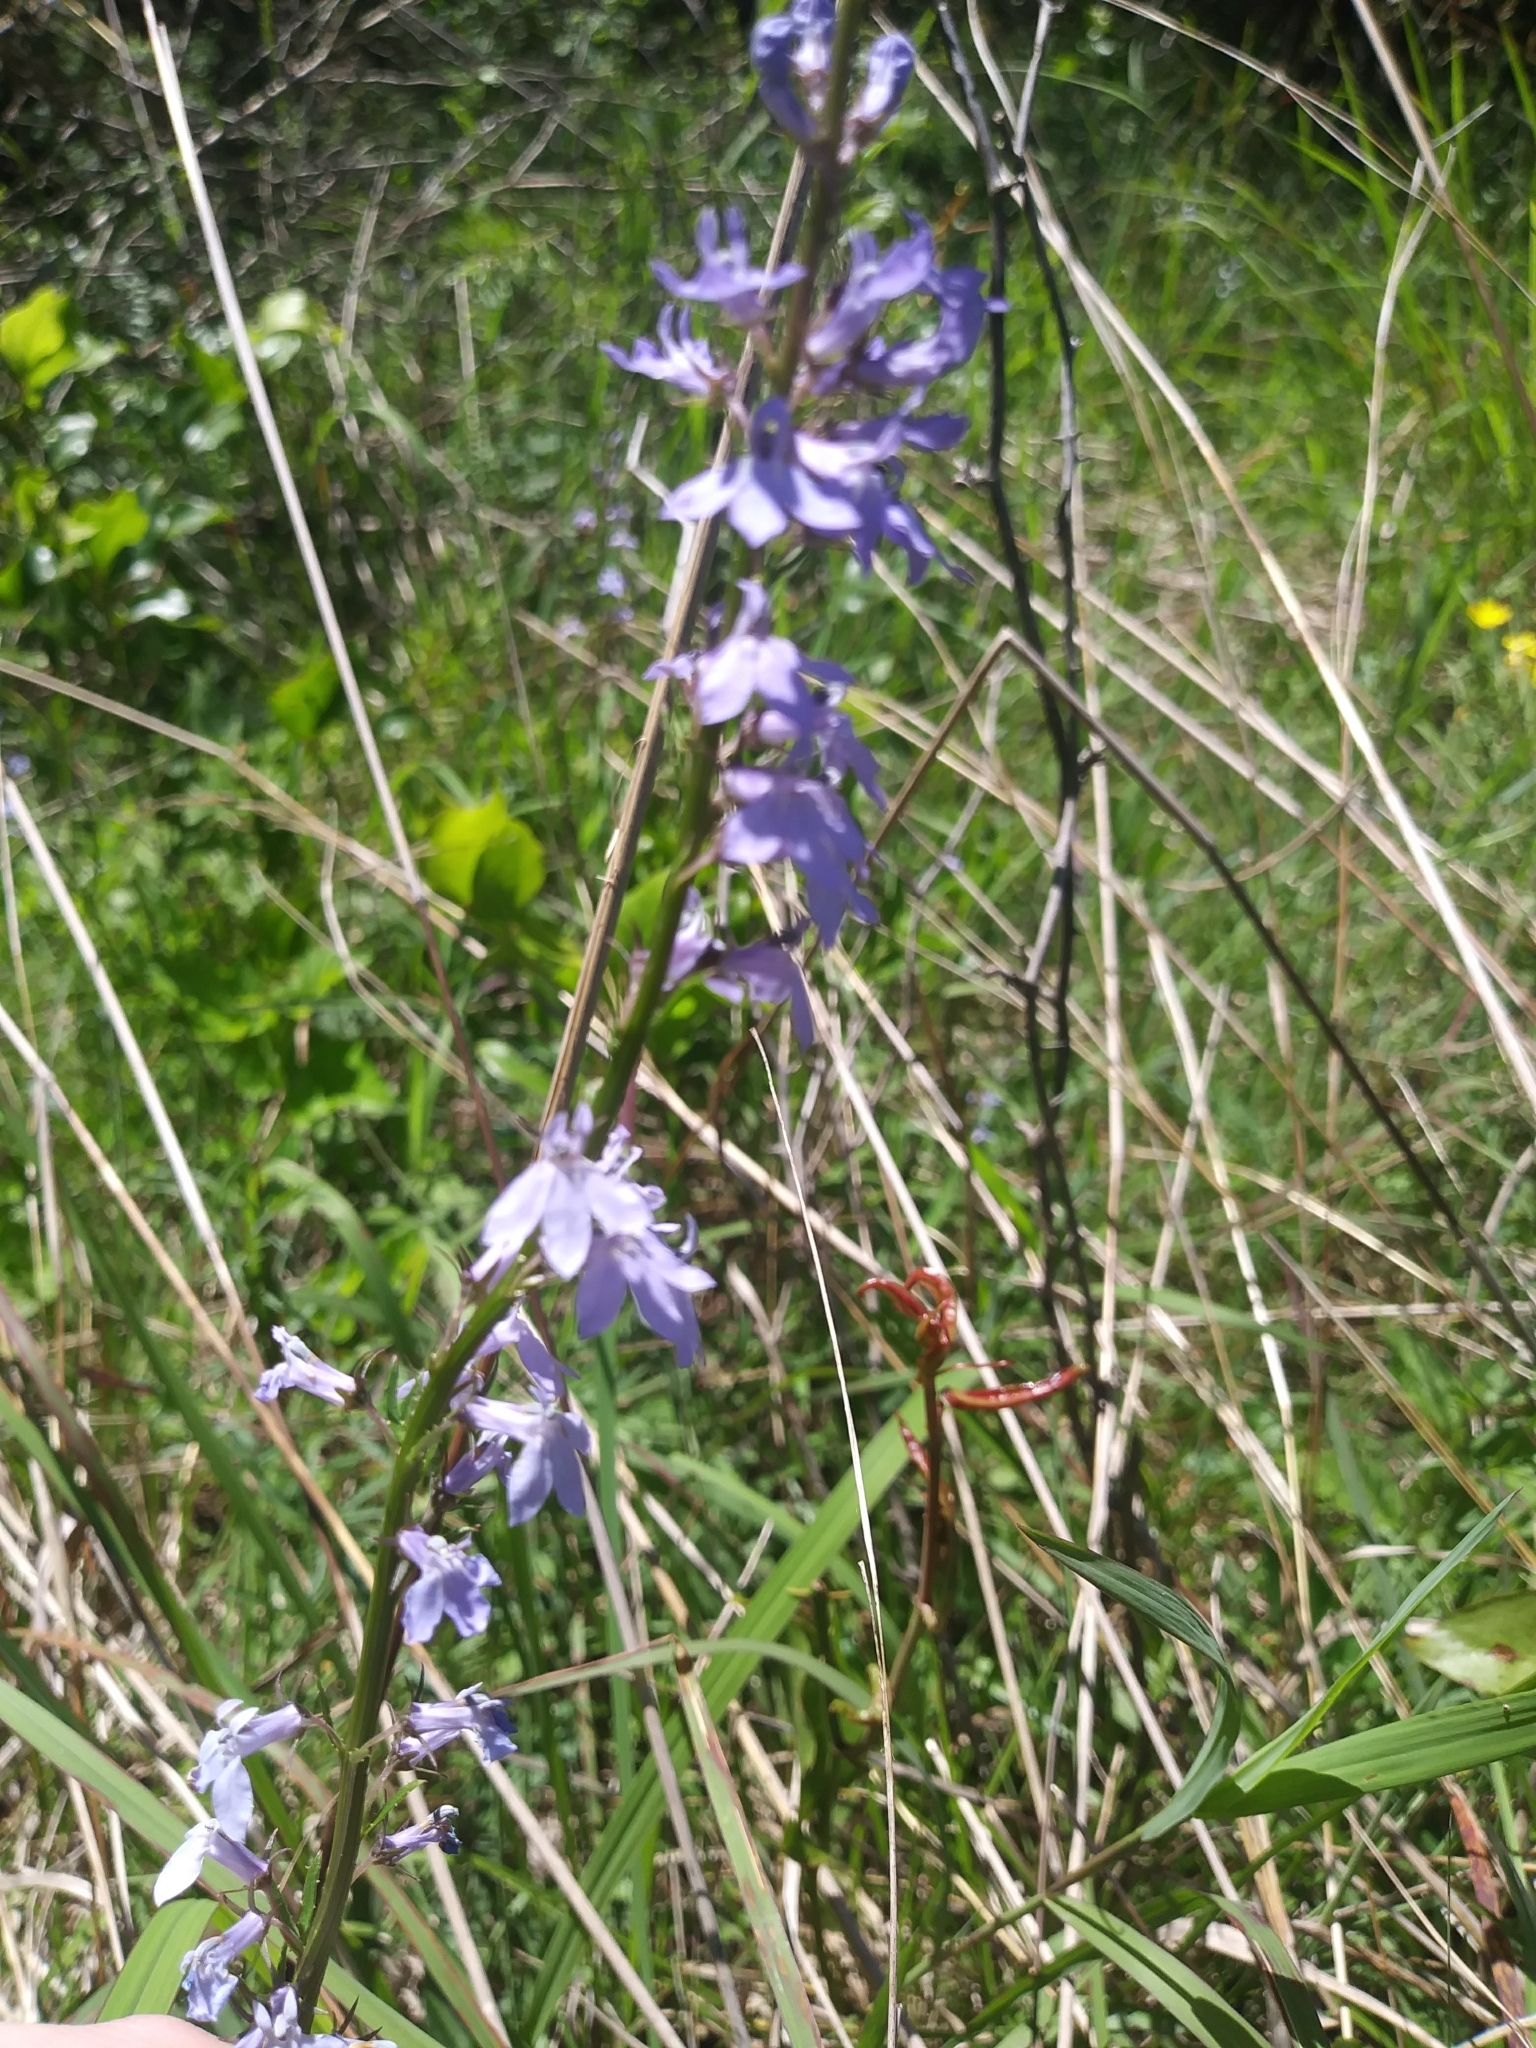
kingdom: Plantae
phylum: Tracheophyta
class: Magnoliopsida
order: Asterales
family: Campanulaceae
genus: Lobelia
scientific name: Lobelia spicata
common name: Pale-spike lobelia
